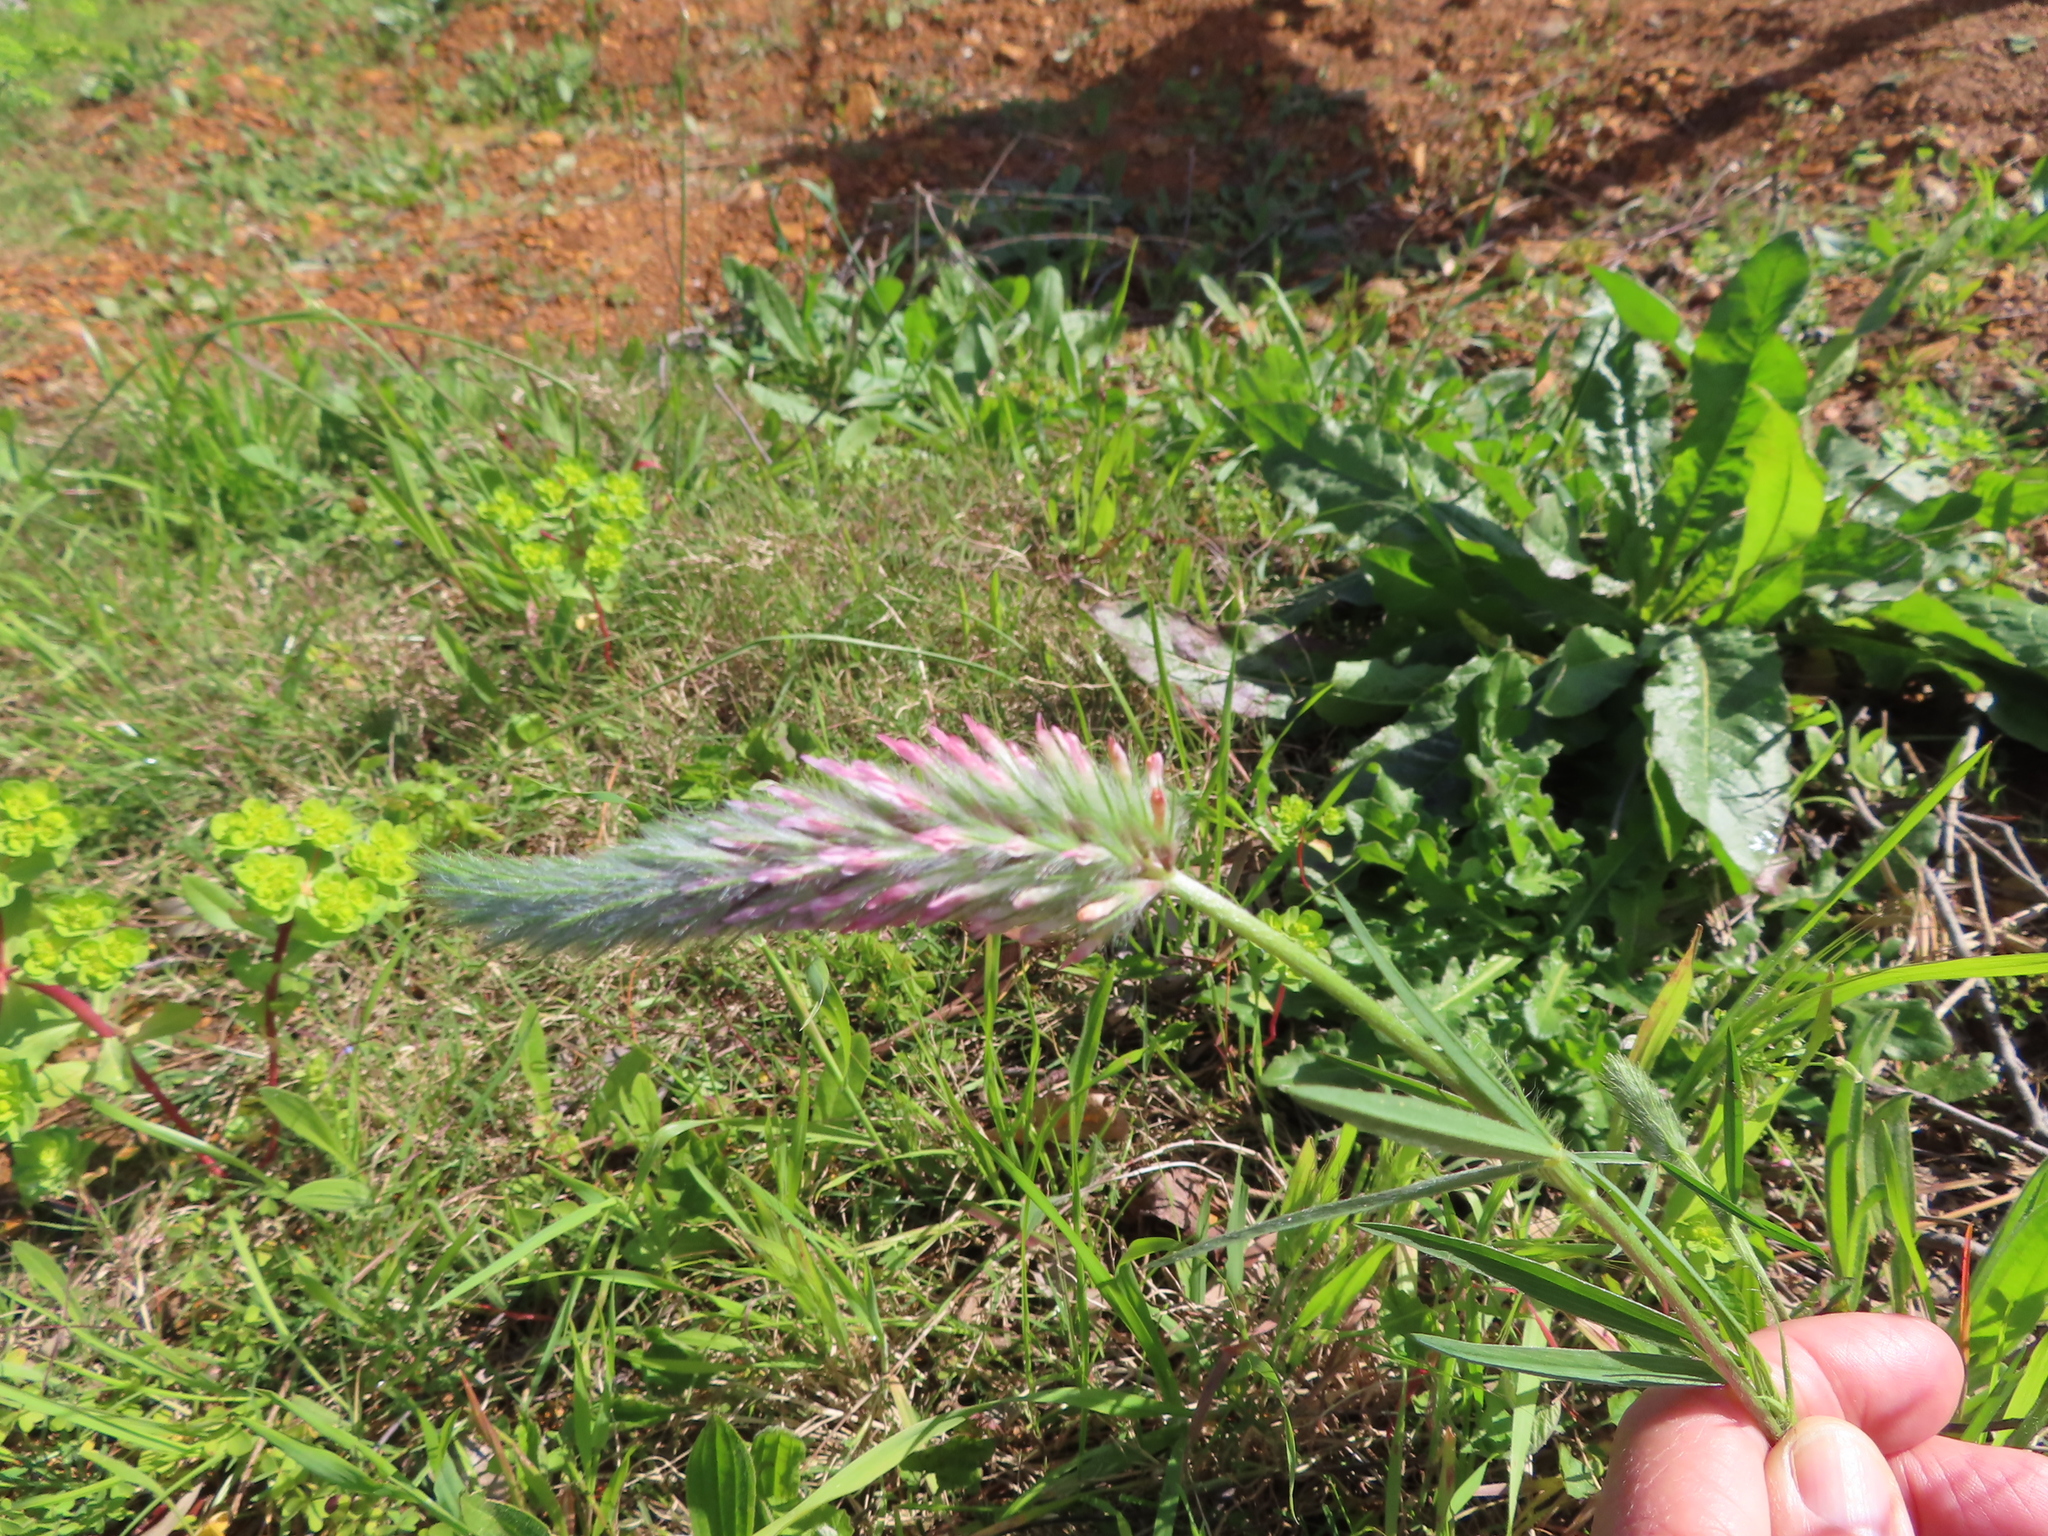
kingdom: Plantae
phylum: Tracheophyta
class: Magnoliopsida
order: Fabales
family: Fabaceae
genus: Trifolium
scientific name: Trifolium angustifolium
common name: Narrow clover
